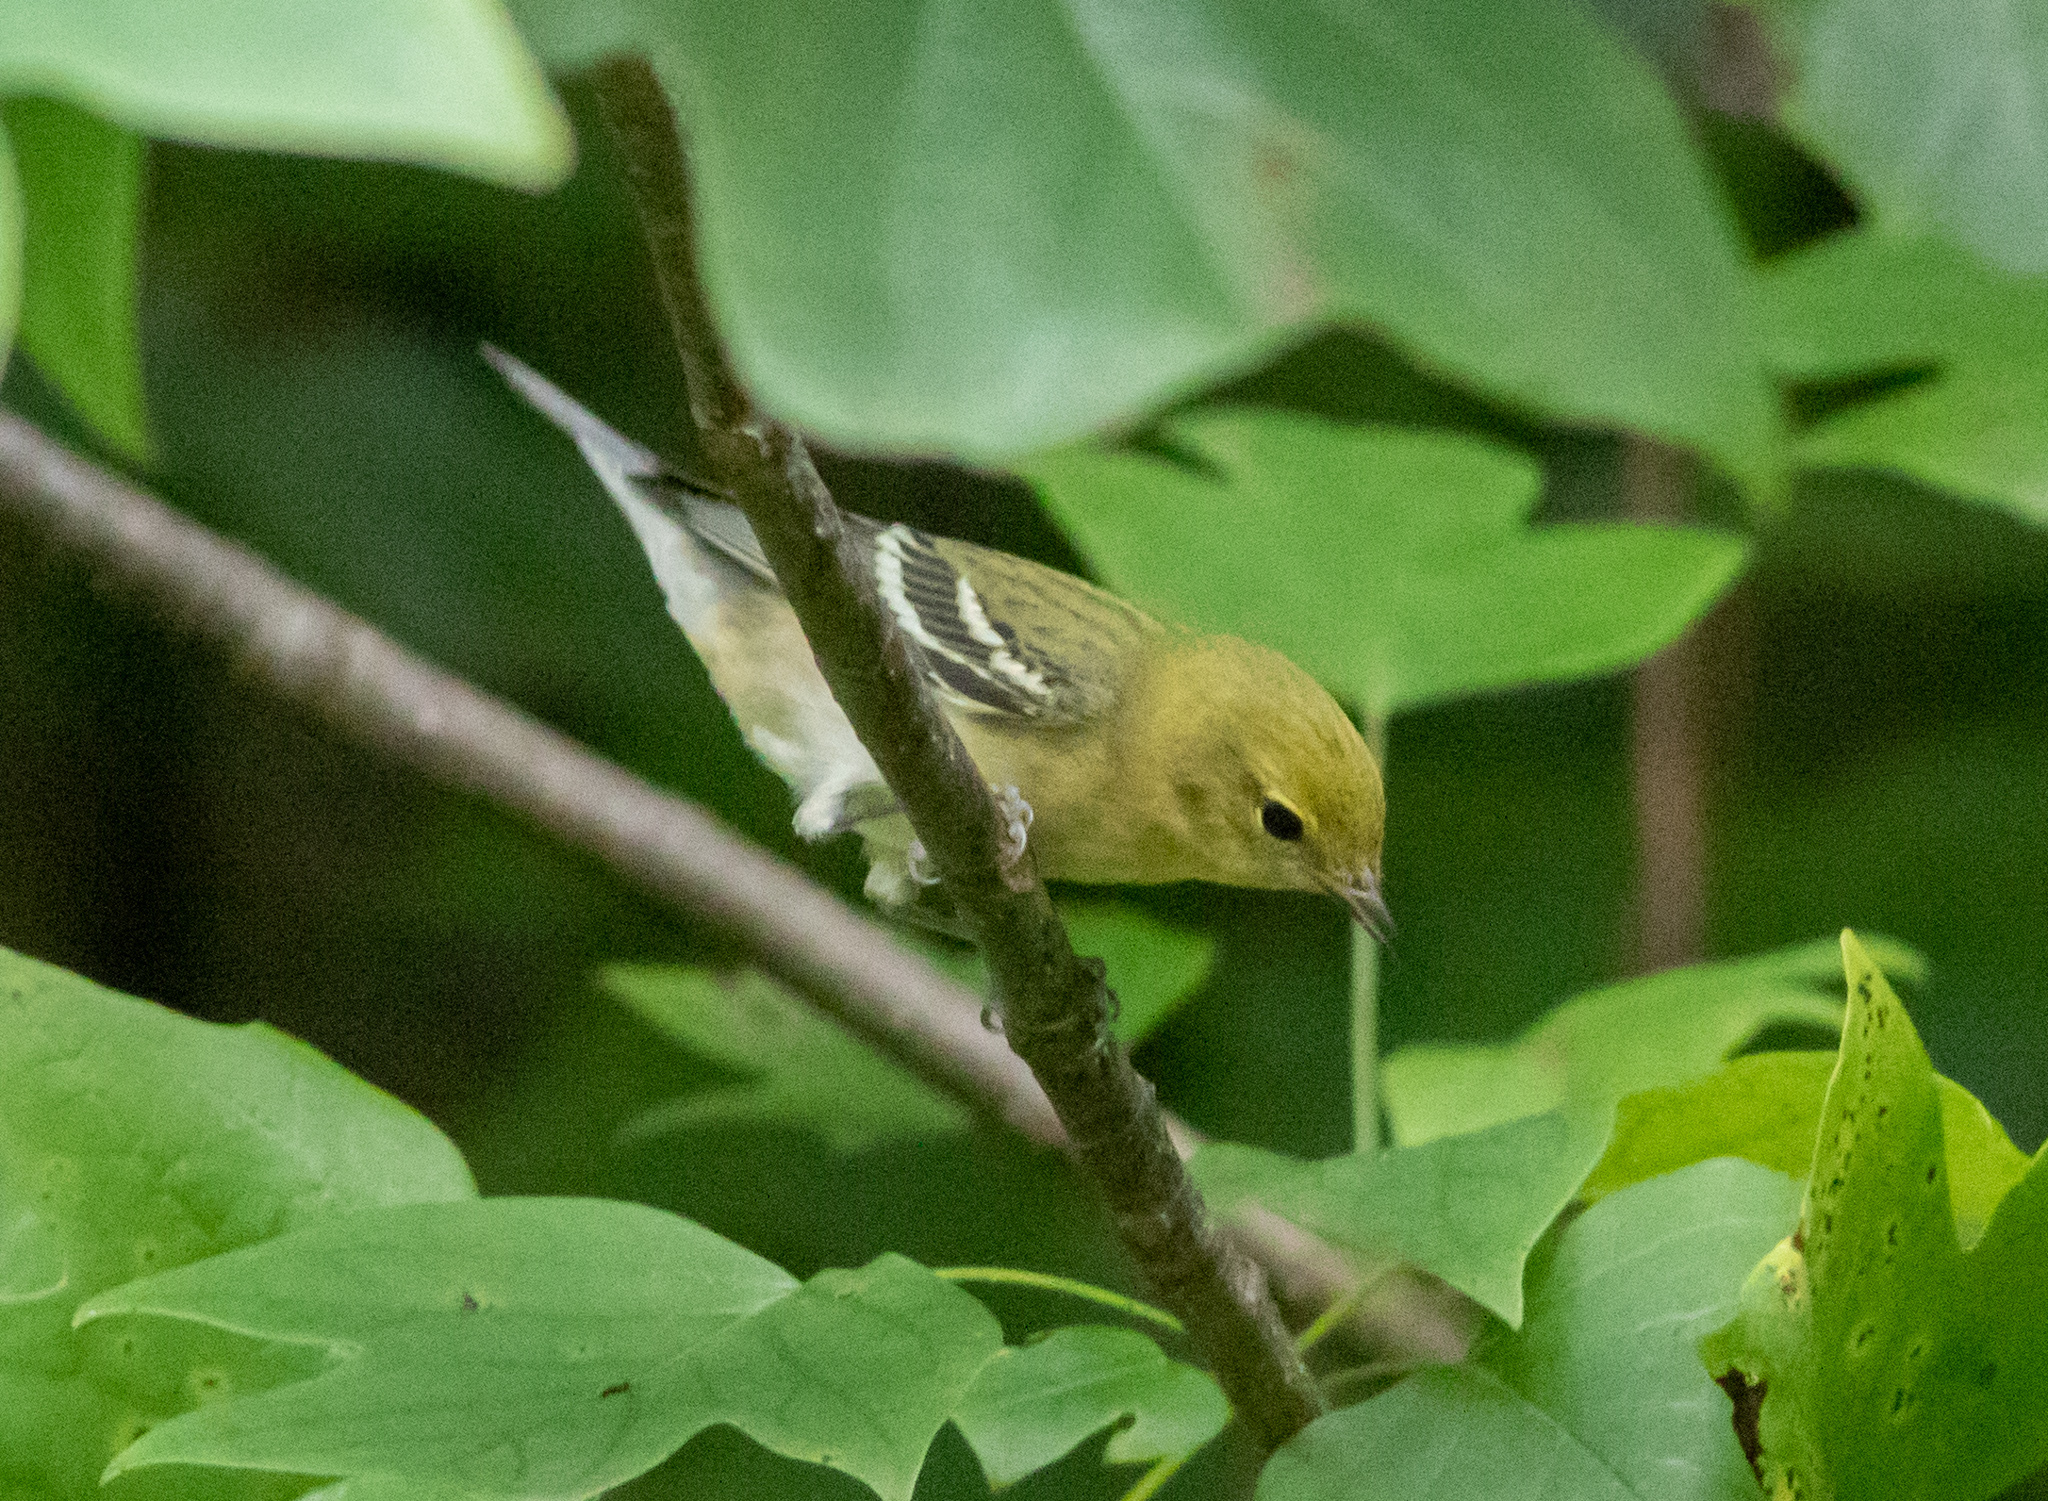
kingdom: Animalia
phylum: Chordata
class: Aves
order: Passeriformes
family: Parulidae
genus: Setophaga
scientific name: Setophaga castanea
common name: Bay-breasted warbler
